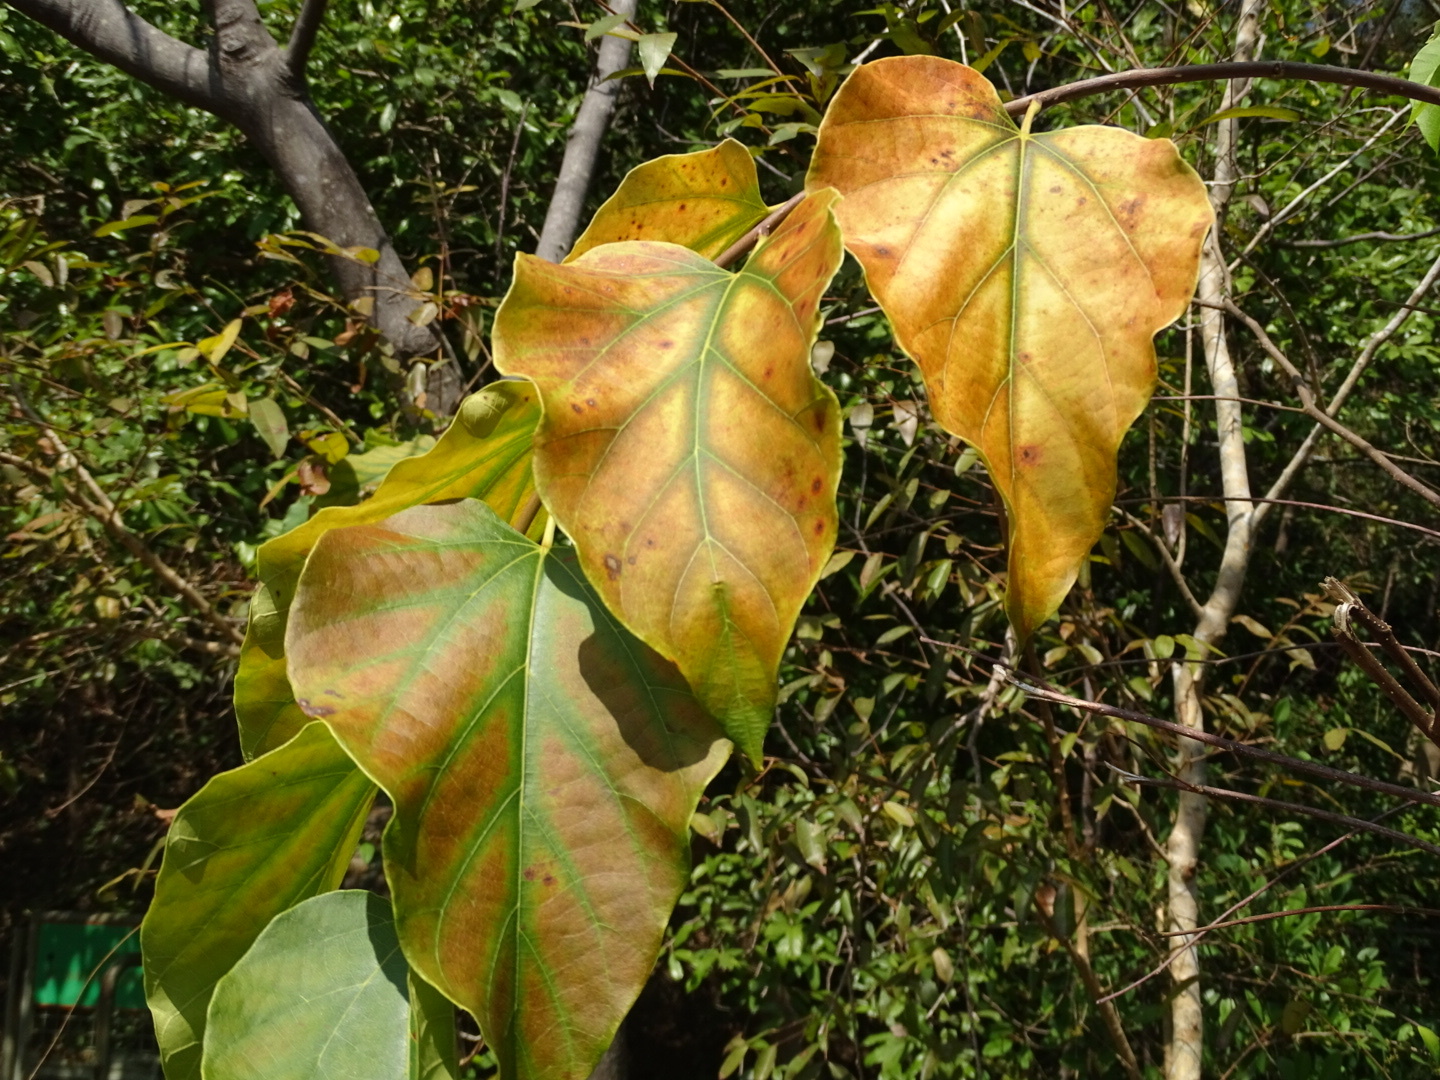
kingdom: Plantae
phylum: Tracheophyta
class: Magnoliopsida
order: Cornales
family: Cornaceae
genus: Alangium
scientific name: Alangium chinense
